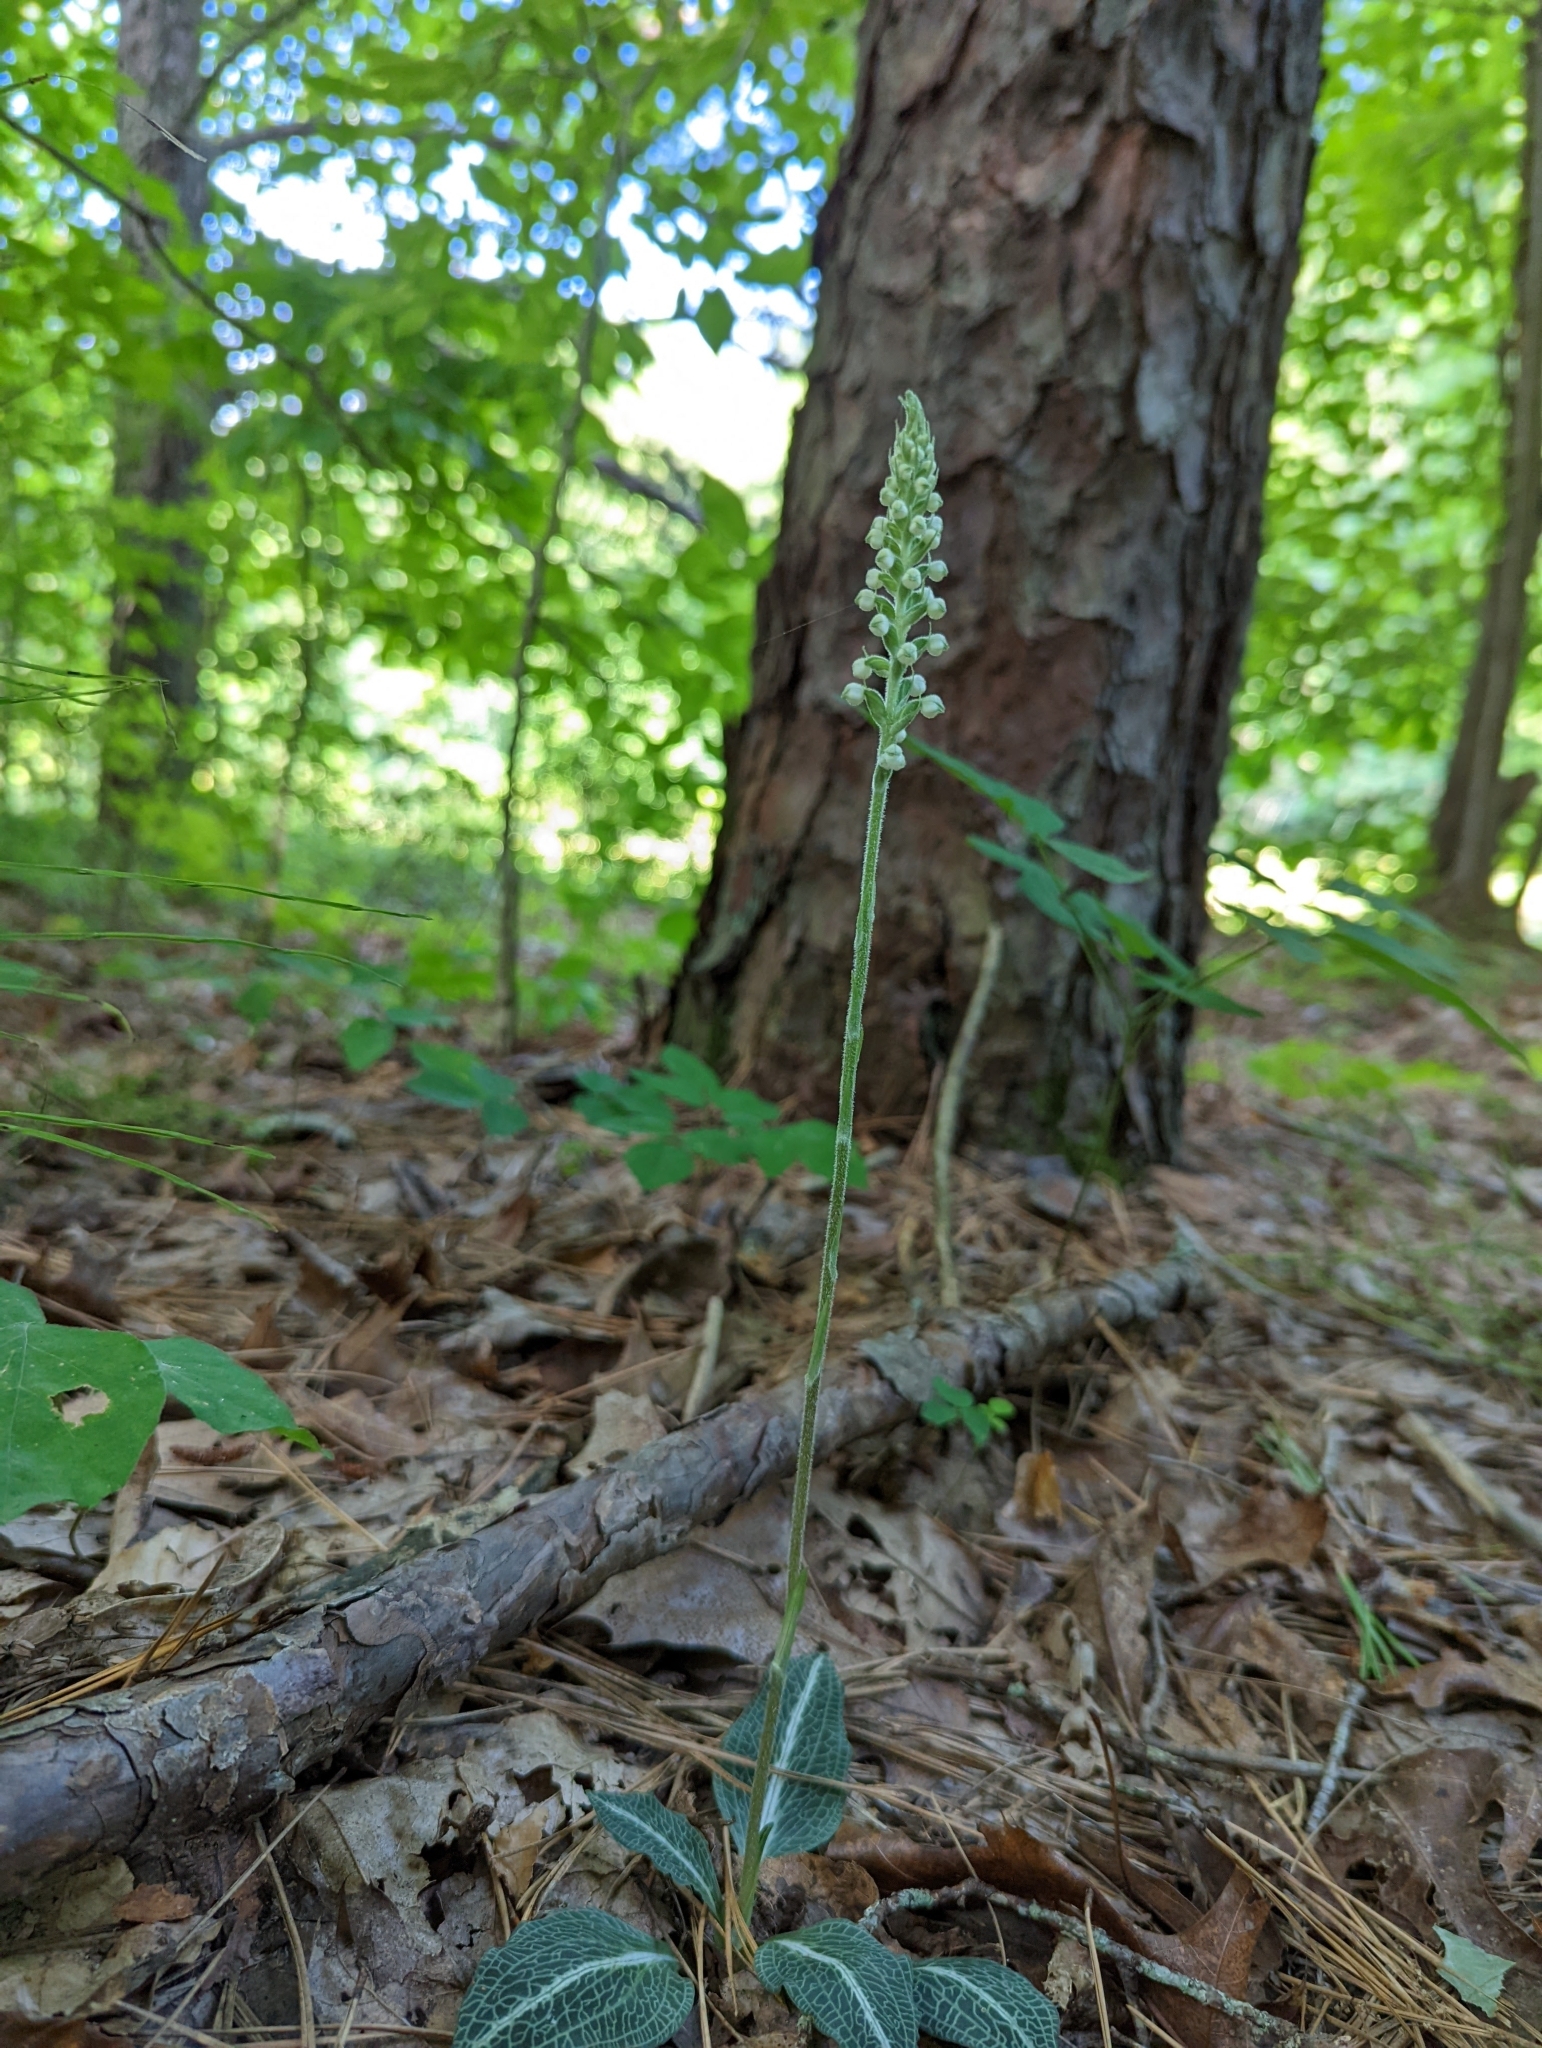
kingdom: Plantae
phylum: Tracheophyta
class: Liliopsida
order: Asparagales
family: Orchidaceae
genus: Goodyera
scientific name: Goodyera pubescens
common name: Downy rattlesnake-plantain
